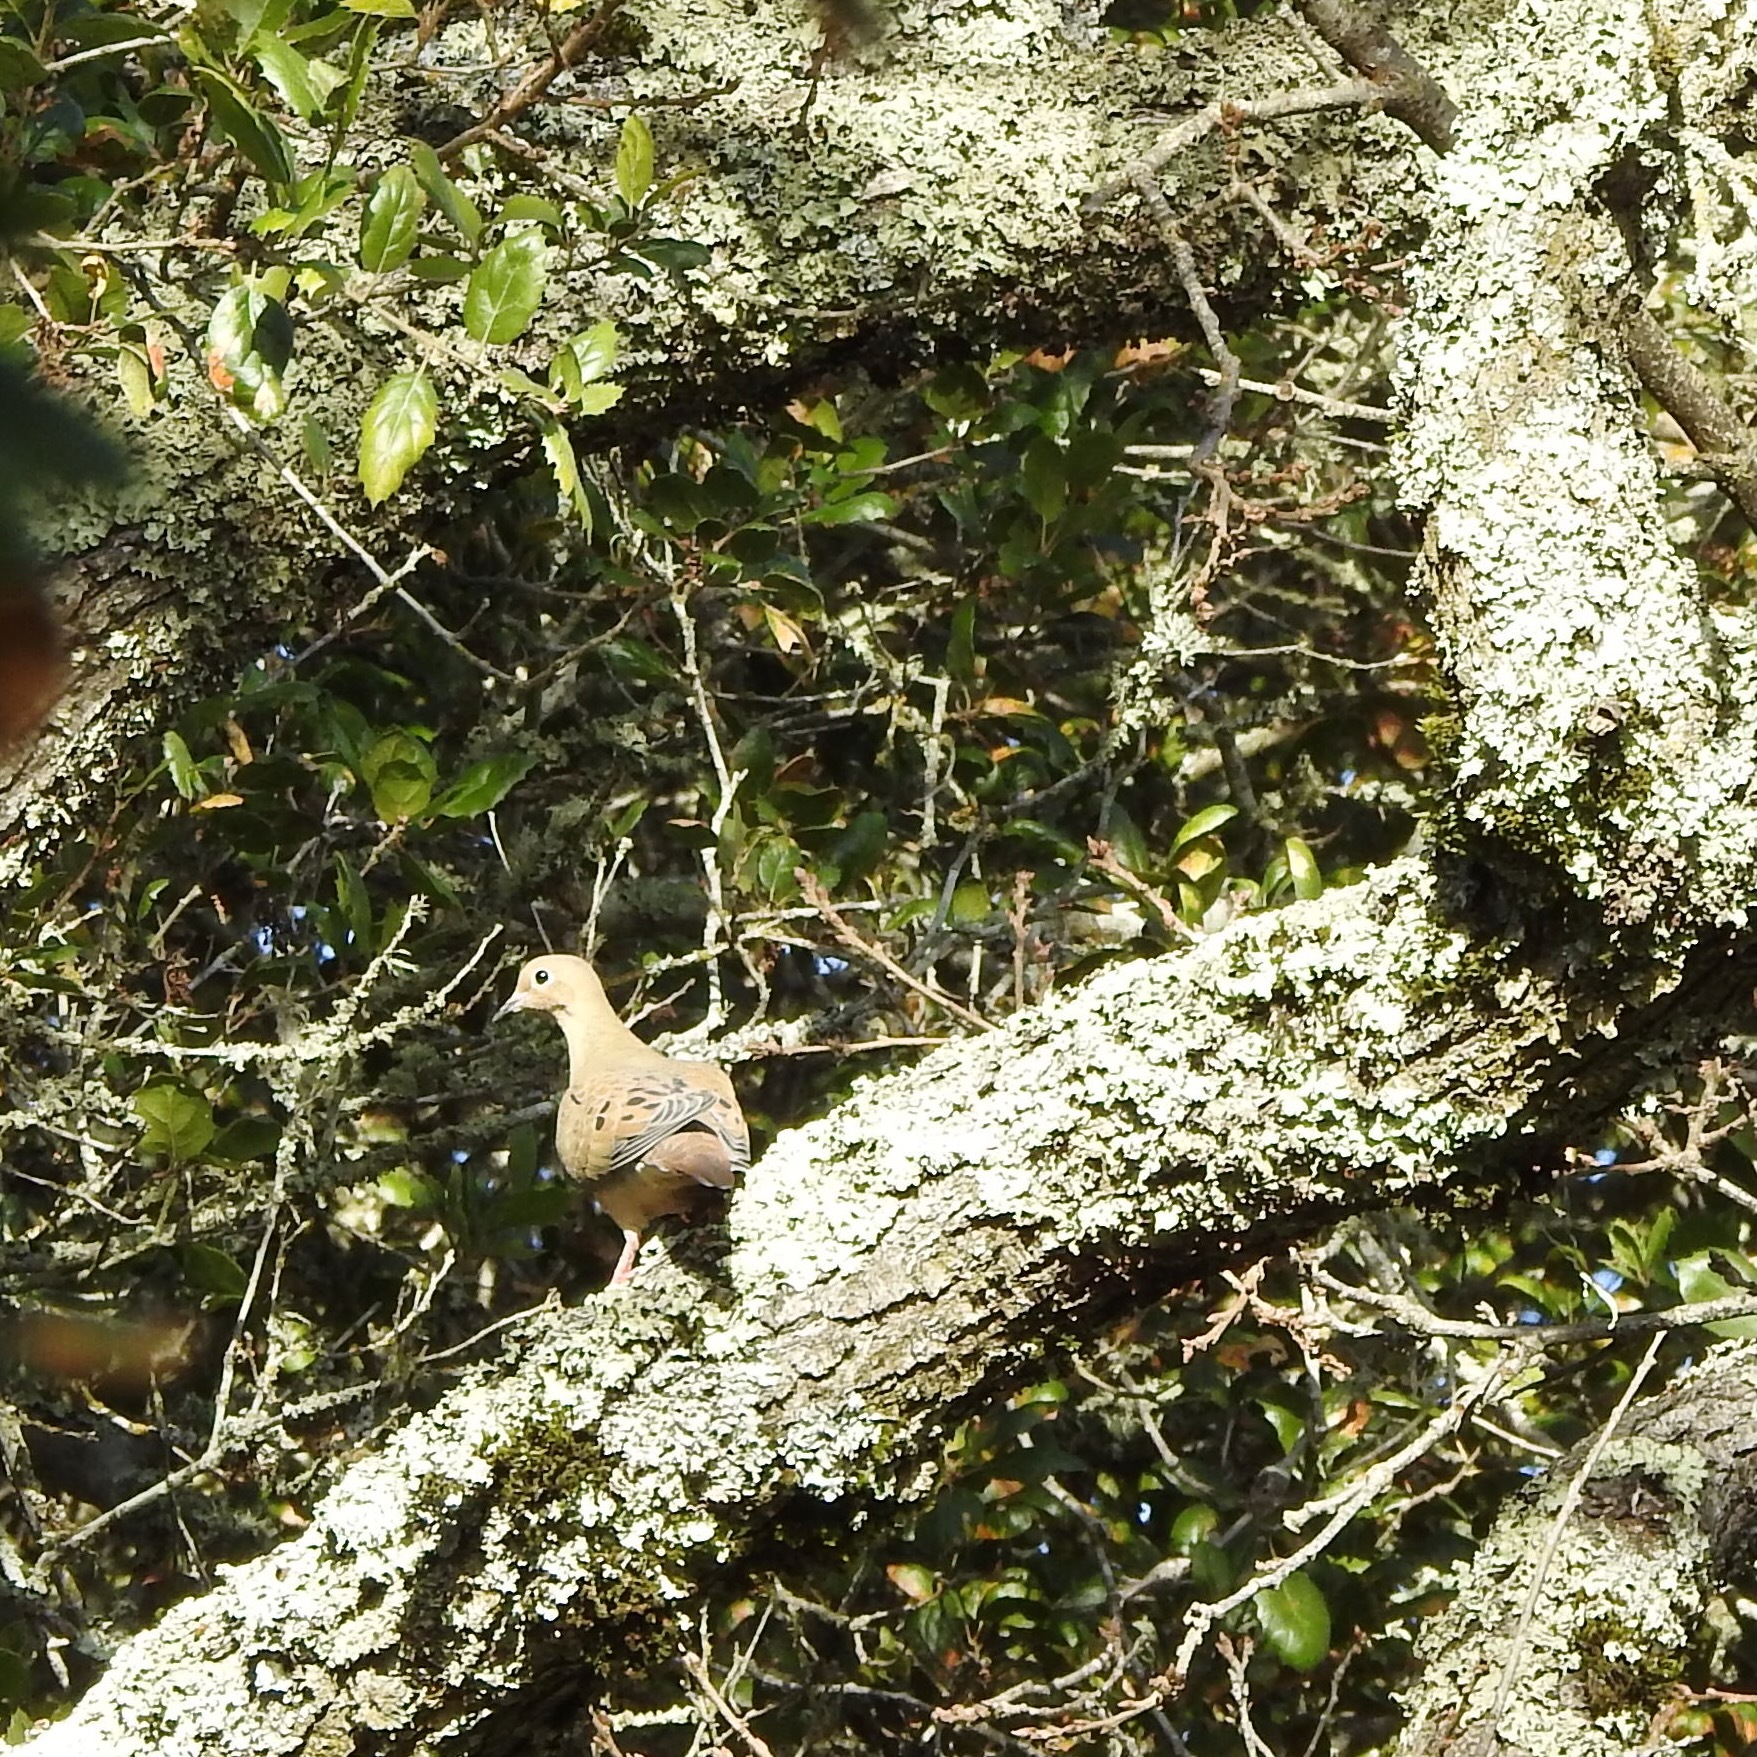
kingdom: Animalia
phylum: Chordata
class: Aves
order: Columbiformes
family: Columbidae
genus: Zenaida
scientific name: Zenaida macroura
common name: Mourning dove
